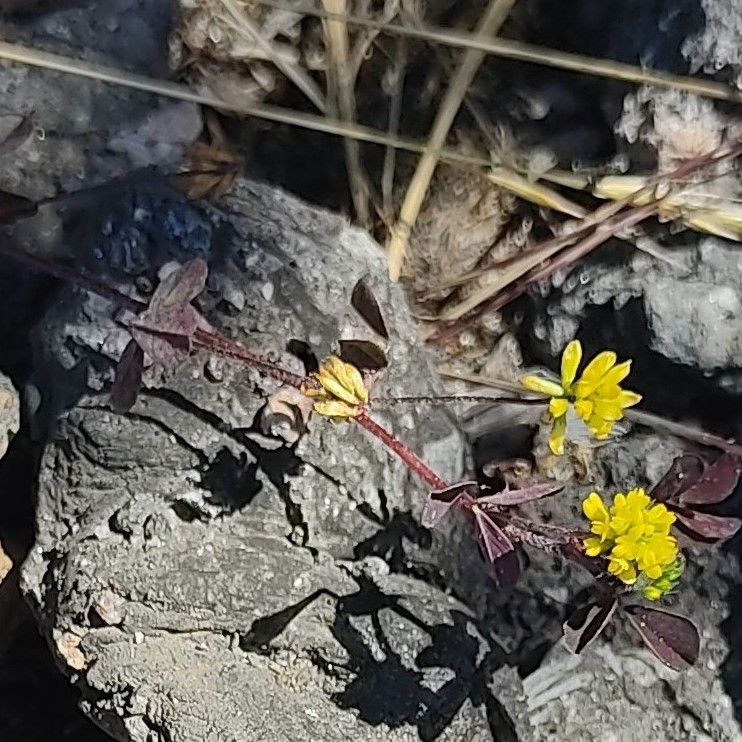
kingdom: Plantae
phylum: Tracheophyta
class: Magnoliopsida
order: Fabales
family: Fabaceae
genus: Trifolium
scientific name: Trifolium dubium
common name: Suckling clover
